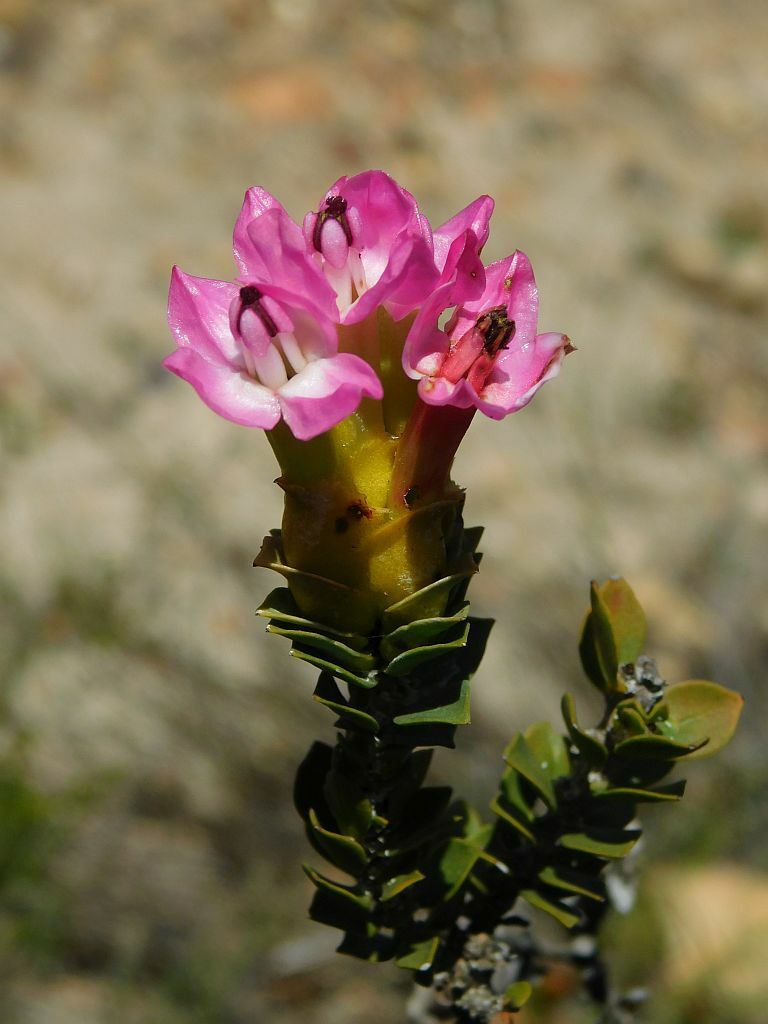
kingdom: Plantae
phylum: Tracheophyta
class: Magnoliopsida
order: Myrtales
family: Penaeaceae
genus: Saltera
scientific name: Saltera sarcocolla
